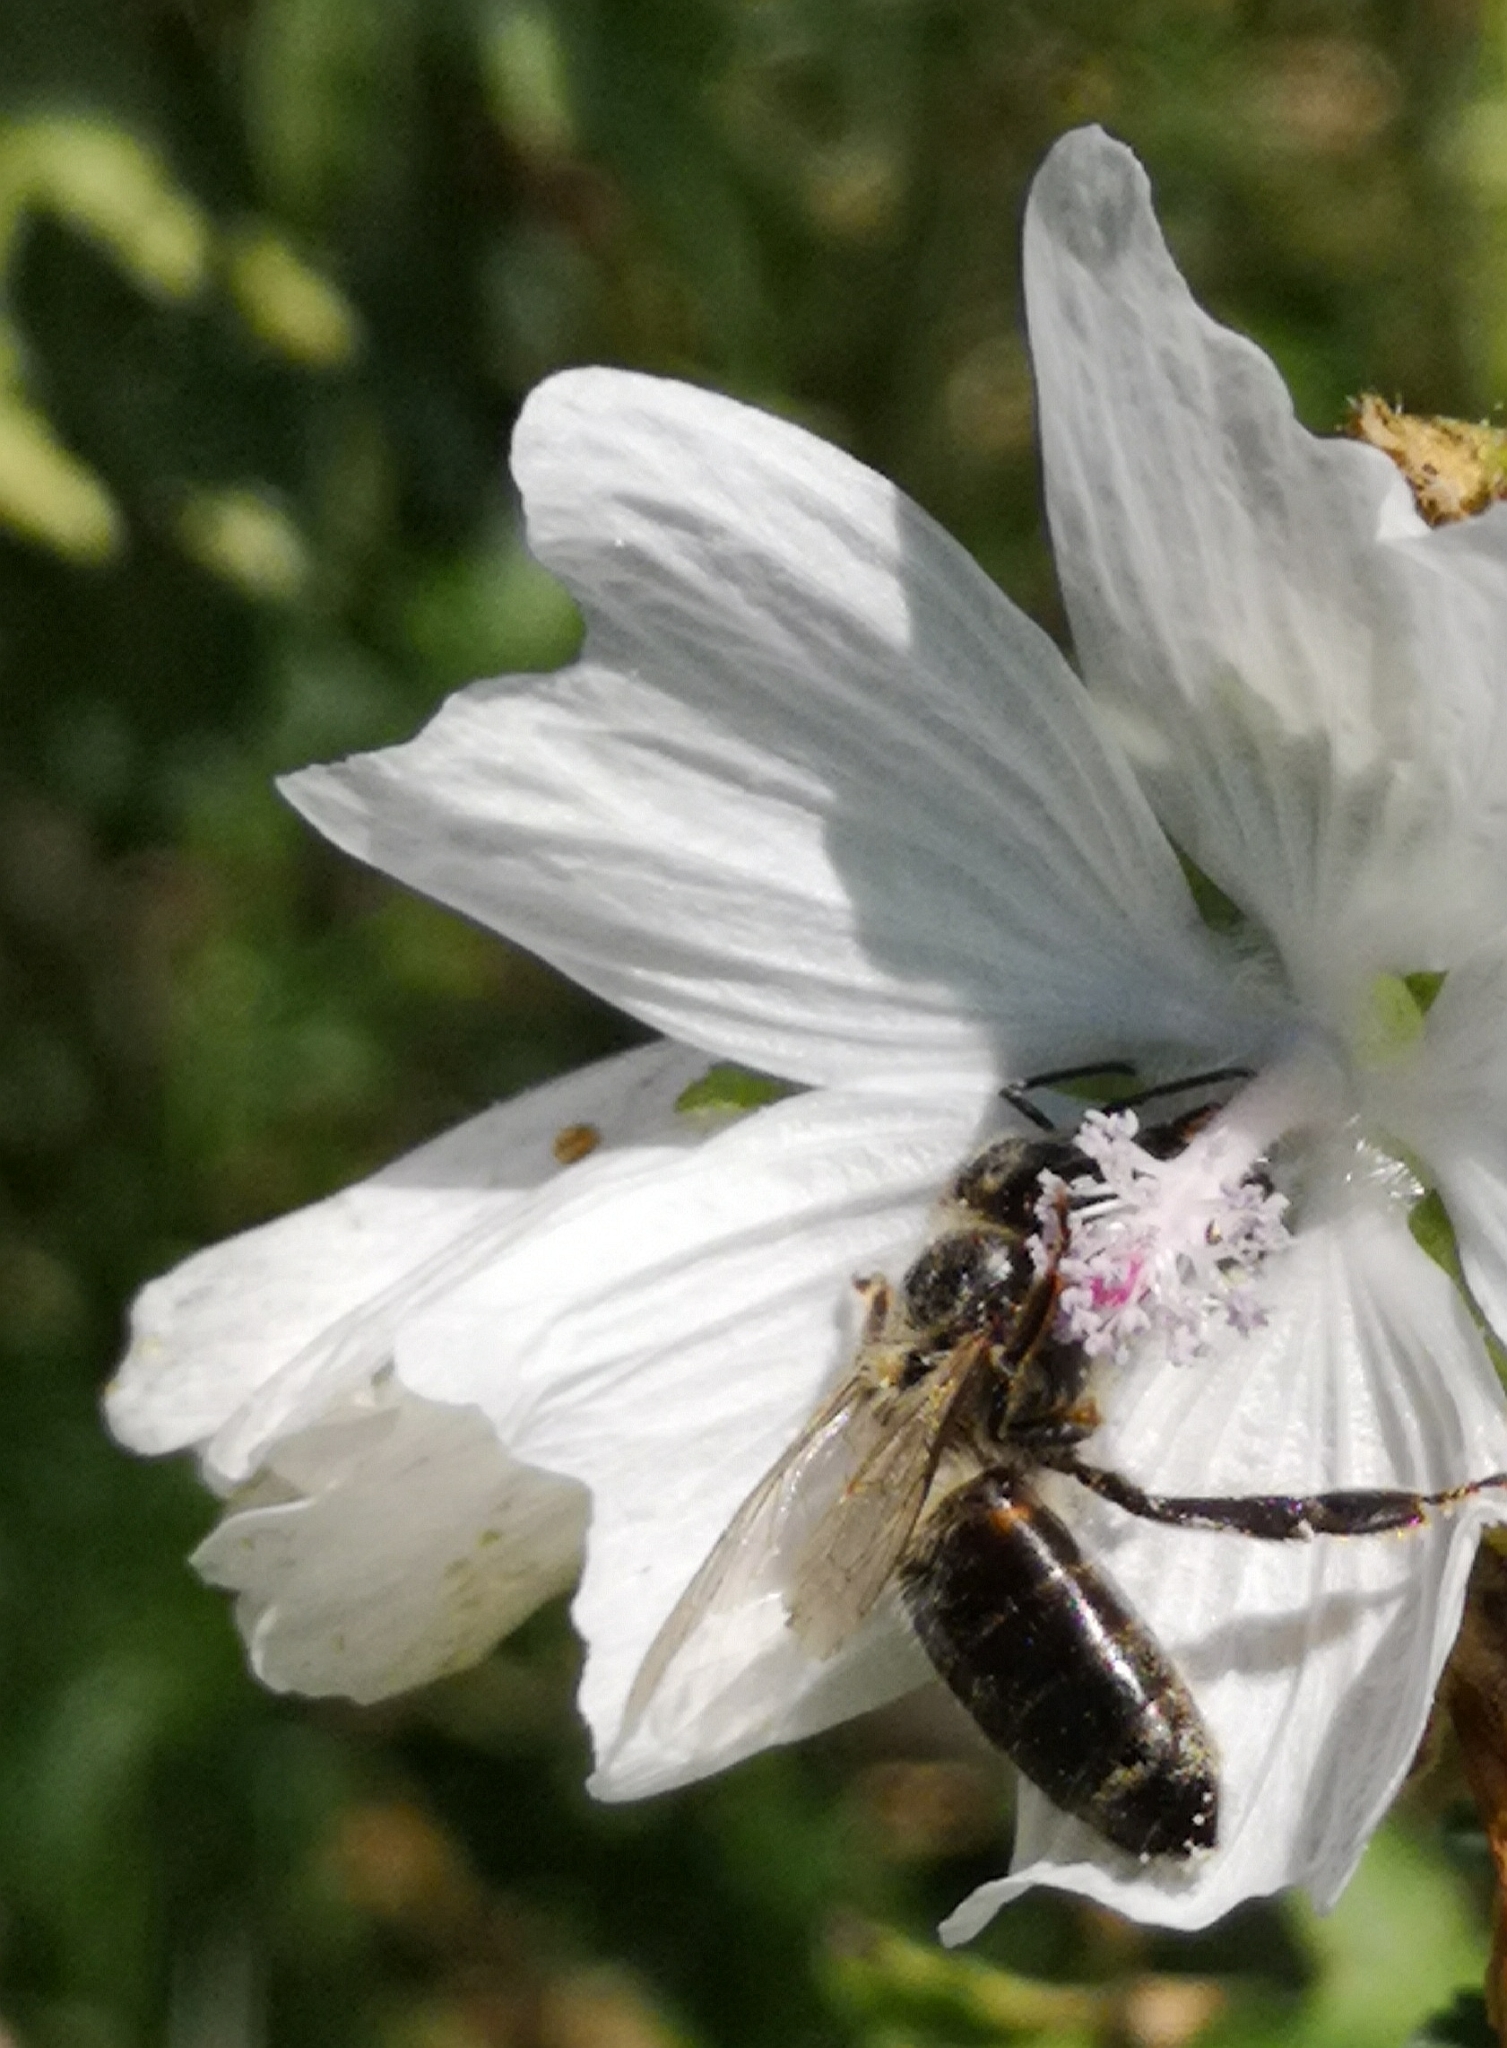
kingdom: Animalia
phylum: Arthropoda
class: Insecta
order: Hymenoptera
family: Apidae
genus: Apis
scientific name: Apis mellifera
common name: Honey bee
